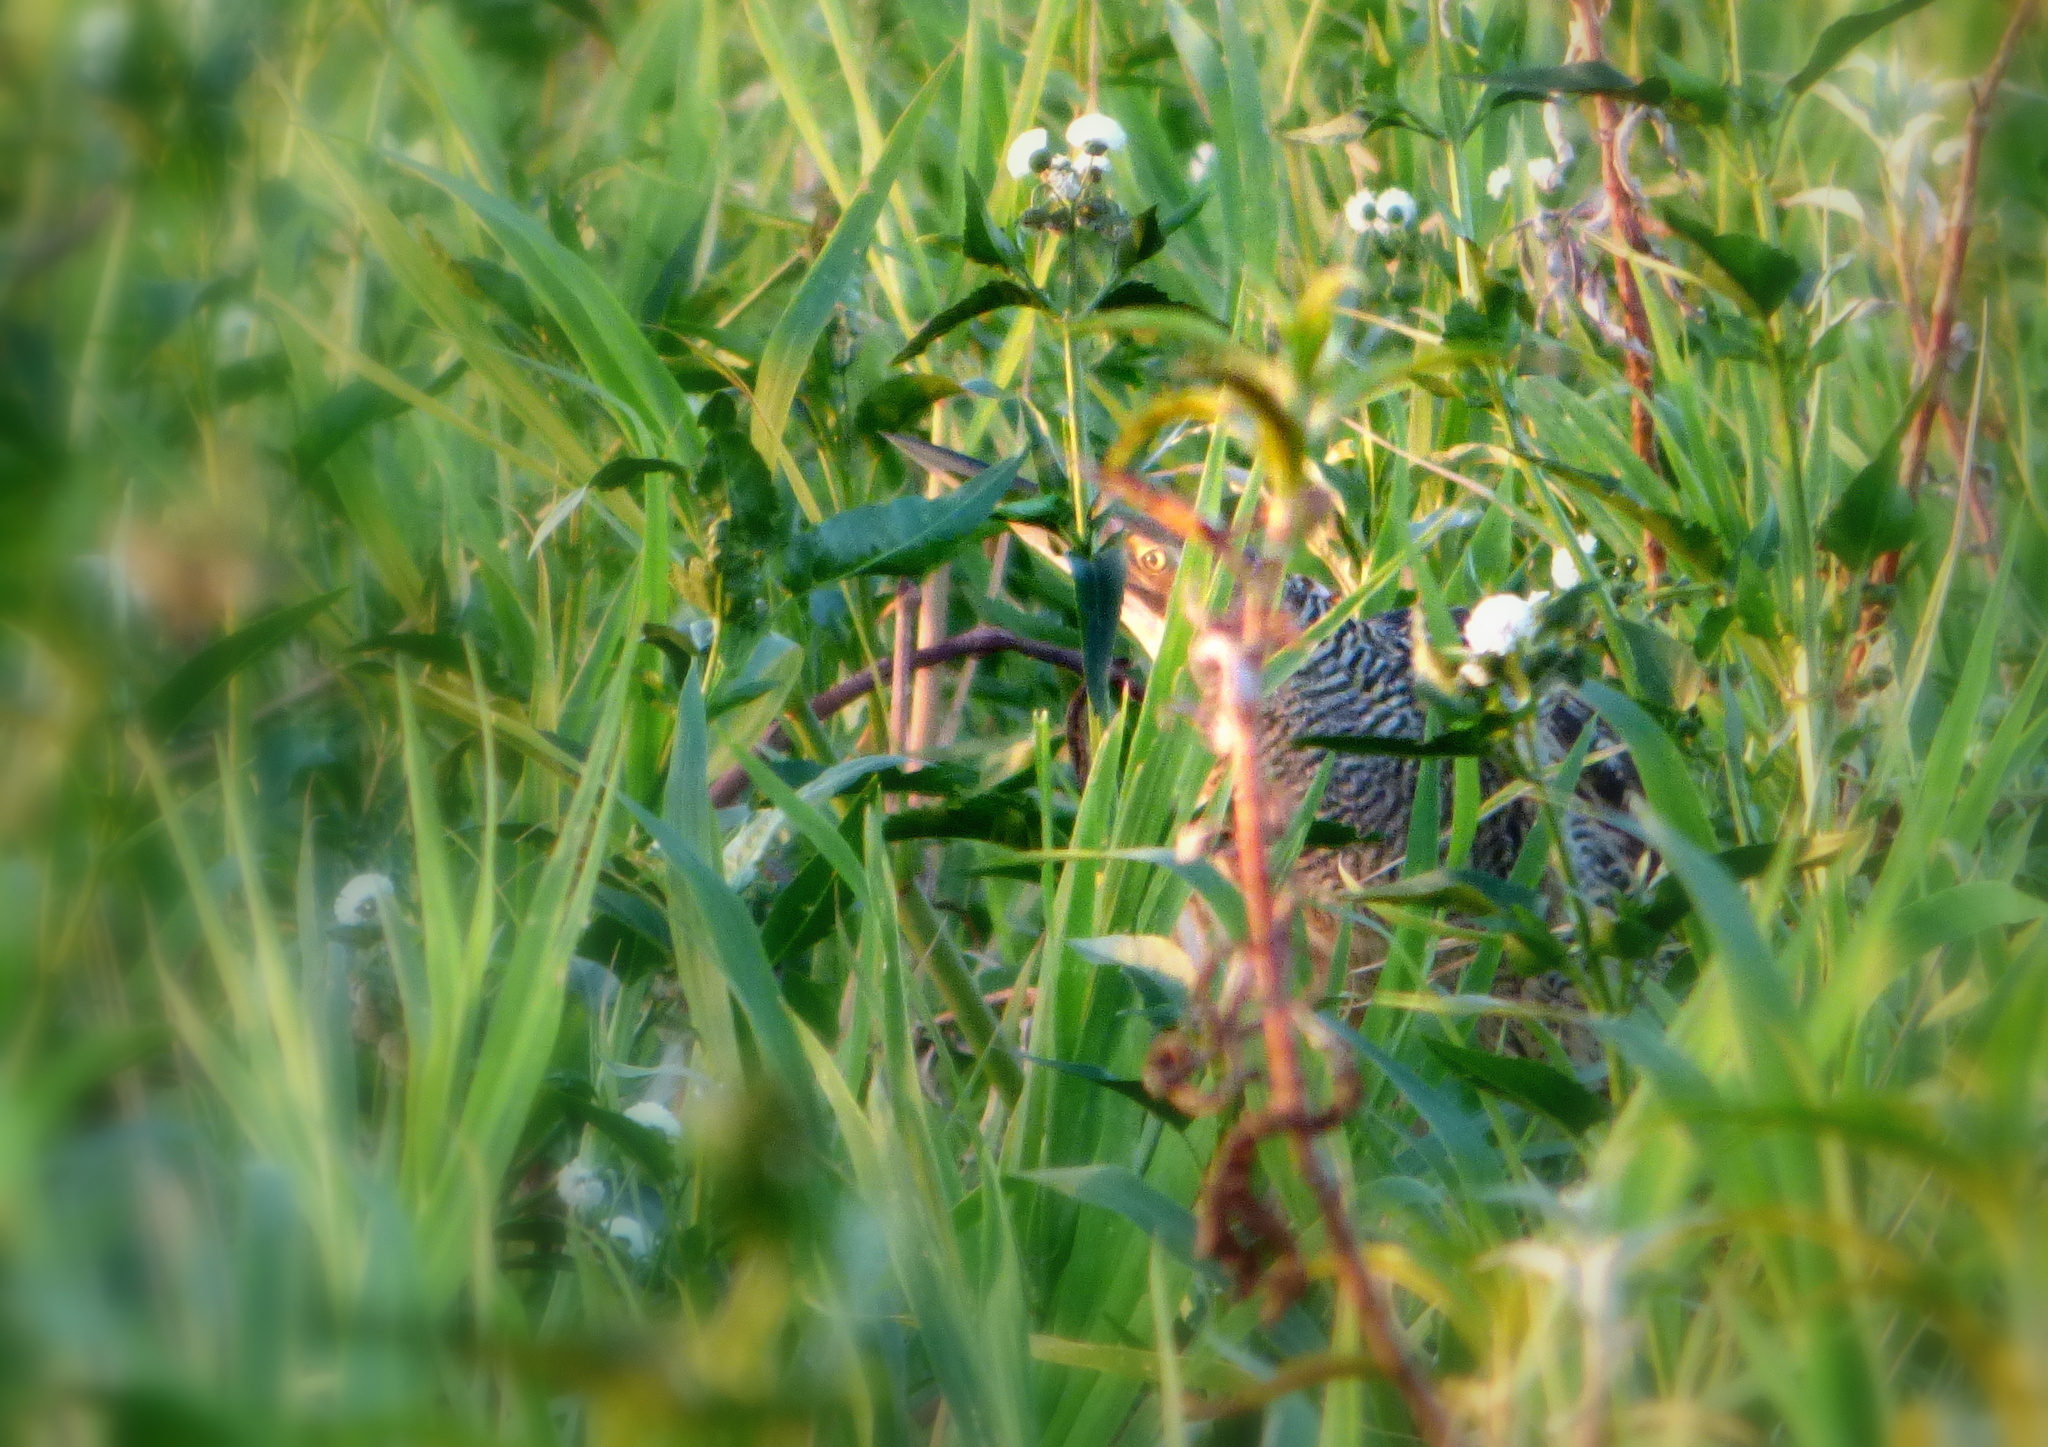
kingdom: Animalia
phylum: Chordata
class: Aves
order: Pelecaniformes
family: Ardeidae
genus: Botaurus
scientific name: Botaurus pinnatus
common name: Pinnated bittern
